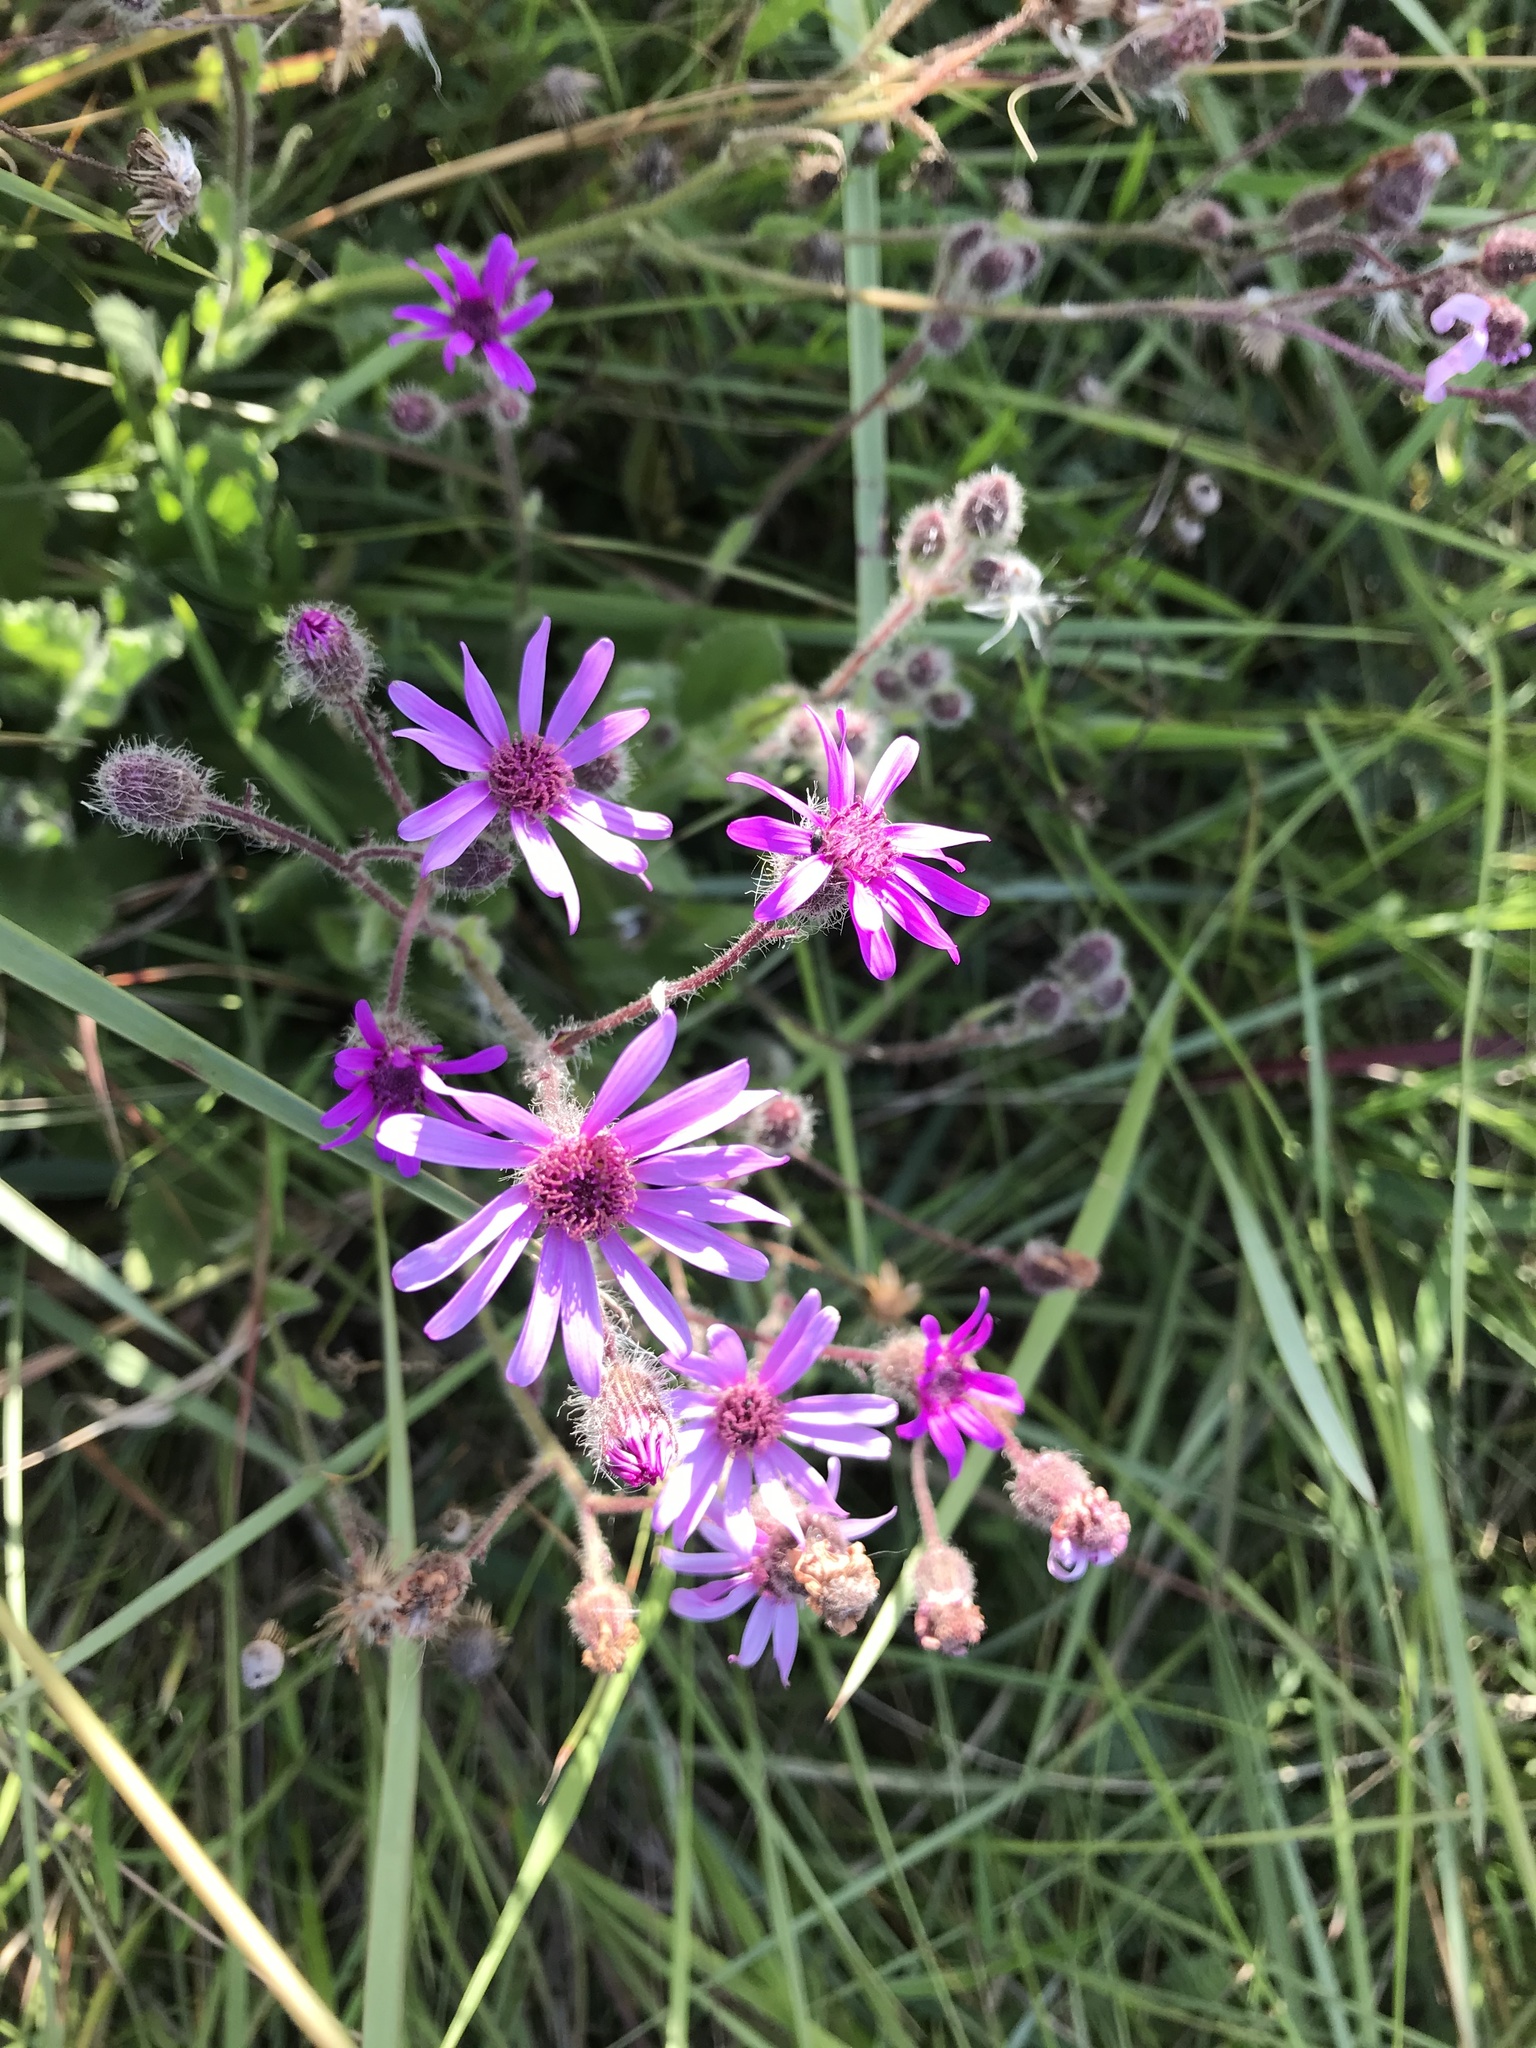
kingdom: Plantae
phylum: Tracheophyta
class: Magnoliopsida
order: Asterales
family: Asteraceae
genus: Senecio
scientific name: Senecio speciosus
